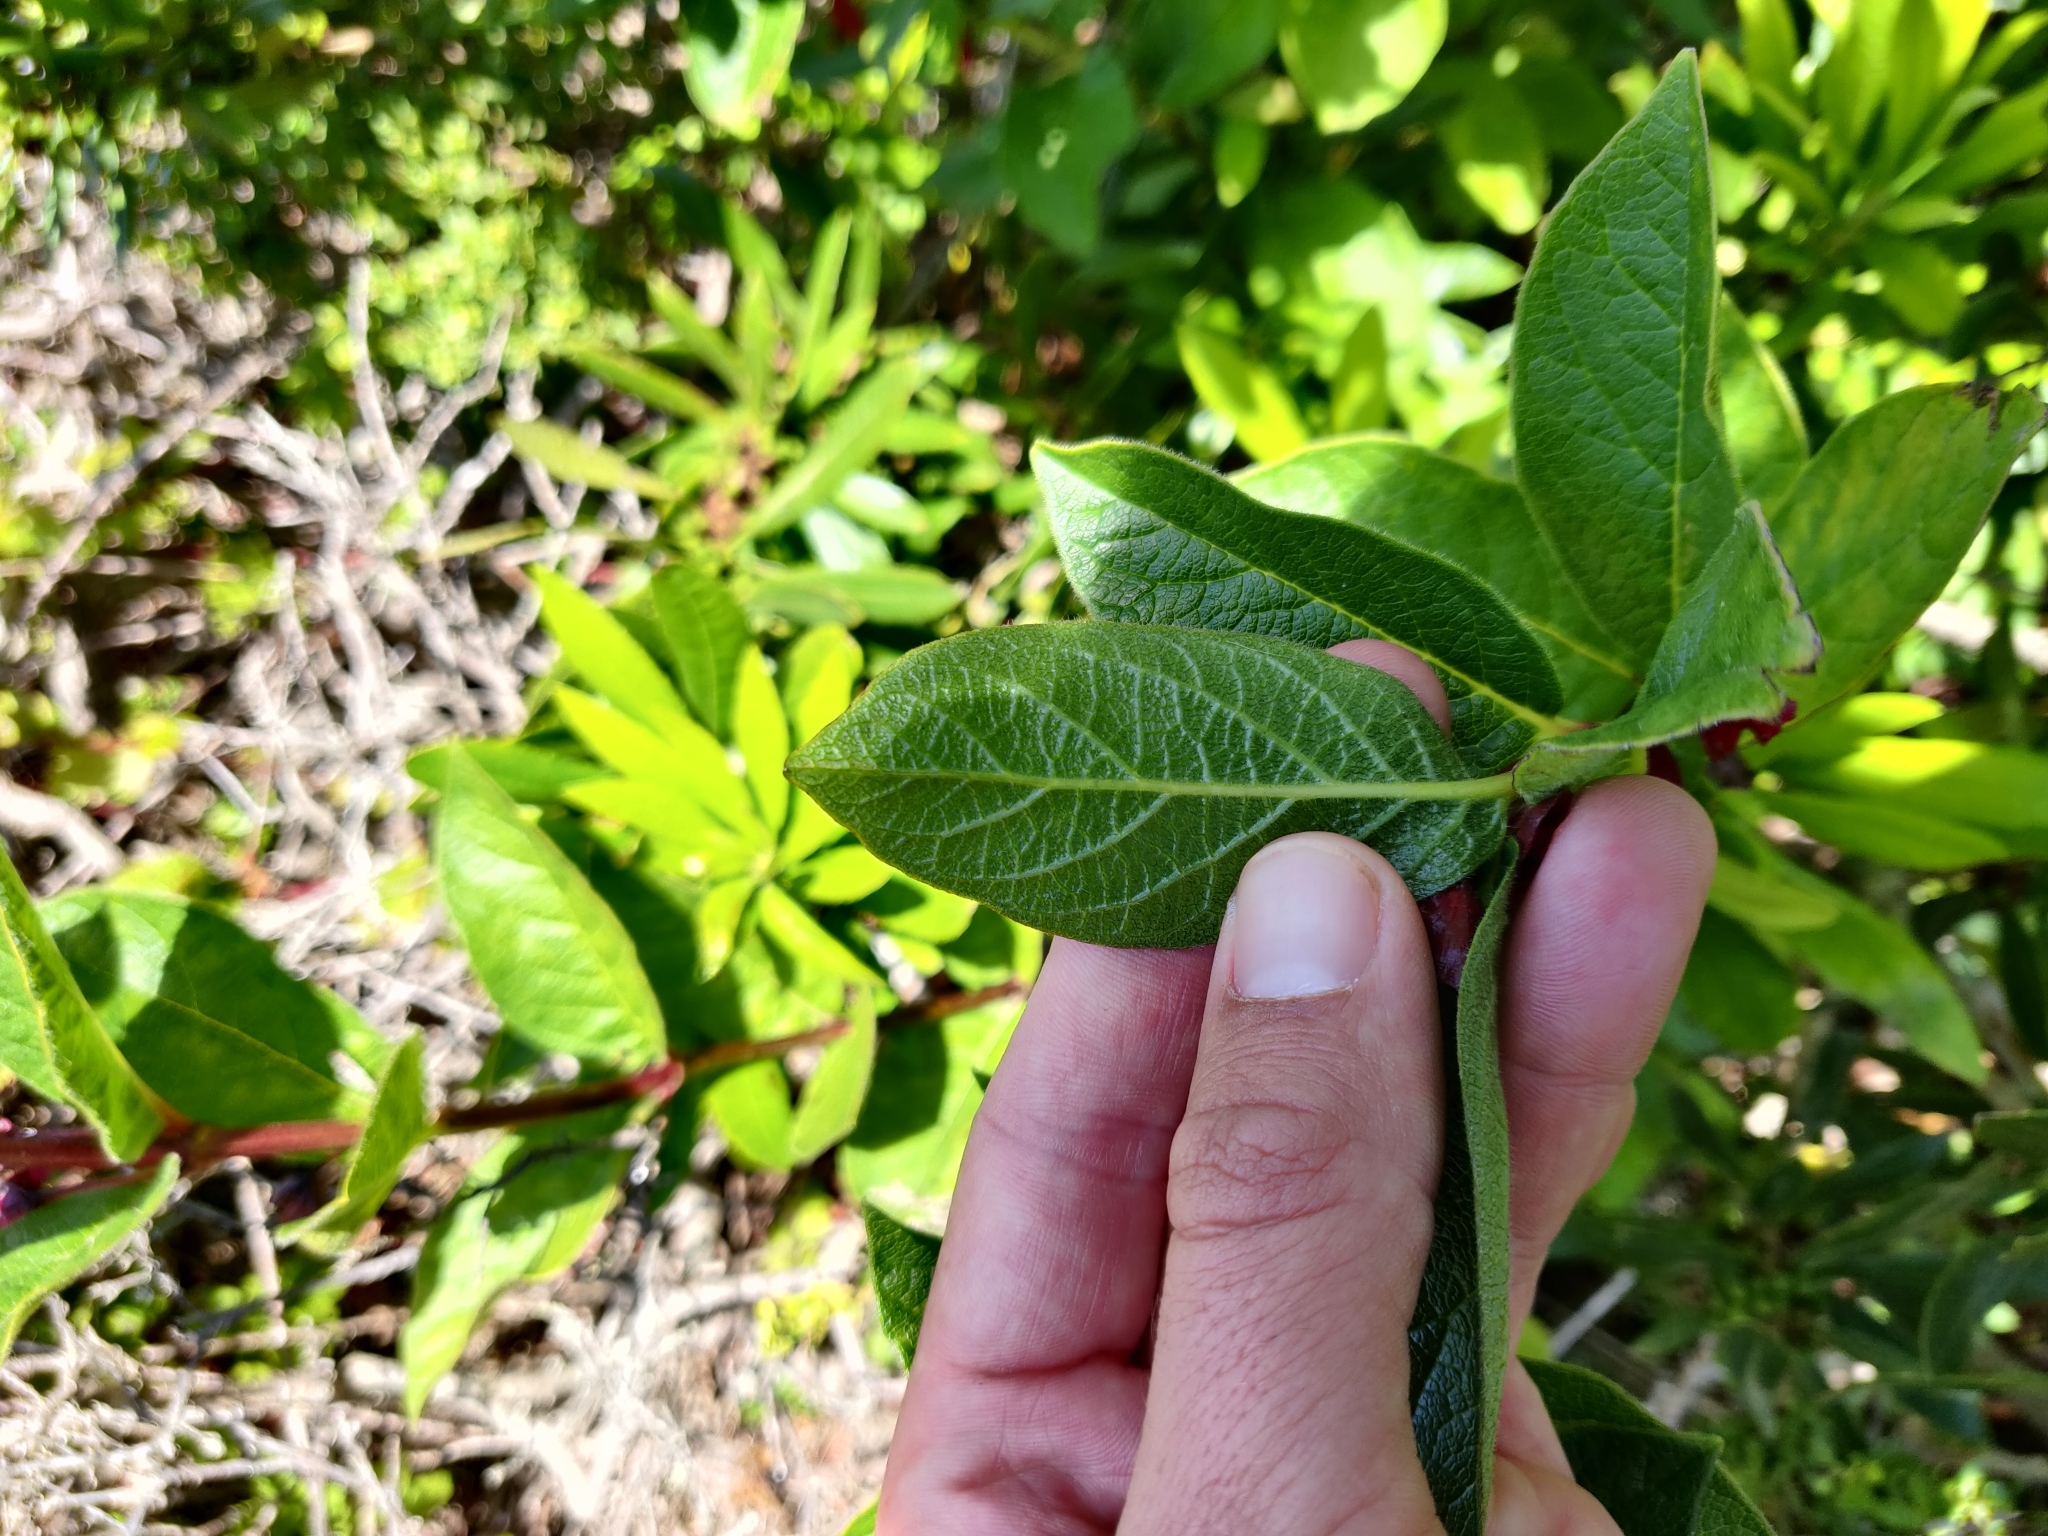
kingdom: Plantae
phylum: Tracheophyta
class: Magnoliopsida
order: Dipsacales
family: Caprifoliaceae
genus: Lonicera
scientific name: Lonicera involucrata
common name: Californian honeysuckle
